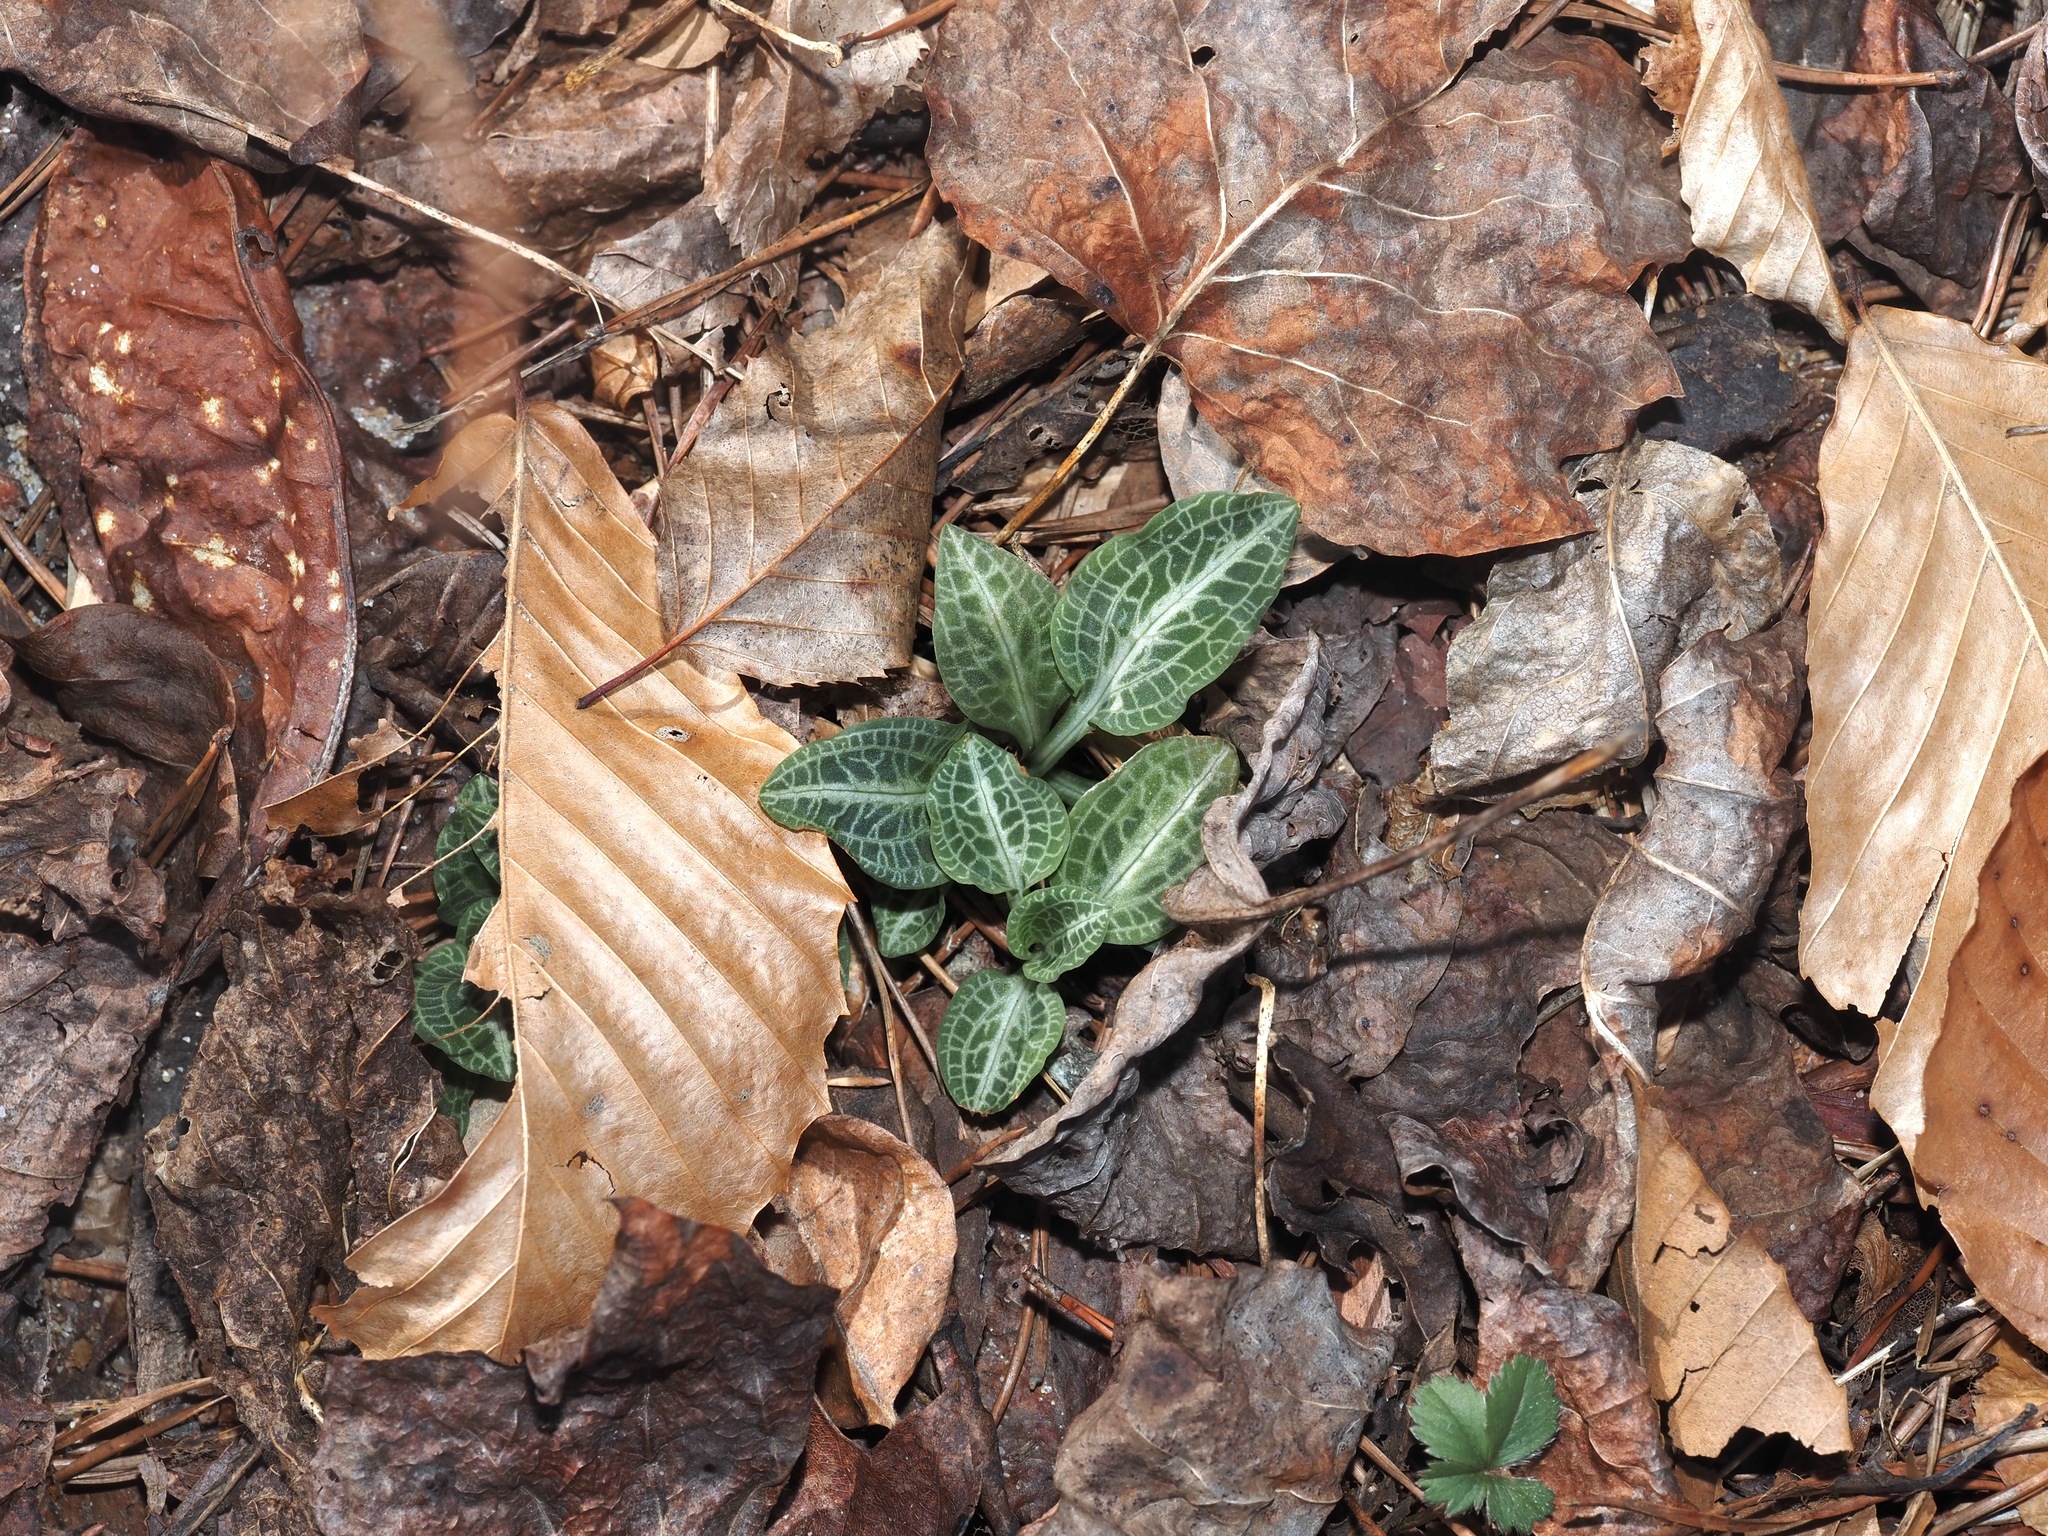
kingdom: Plantae
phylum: Tracheophyta
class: Liliopsida
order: Asparagales
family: Orchidaceae
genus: Goodyera
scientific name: Goodyera pubescens
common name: Downy rattlesnake-plantain
